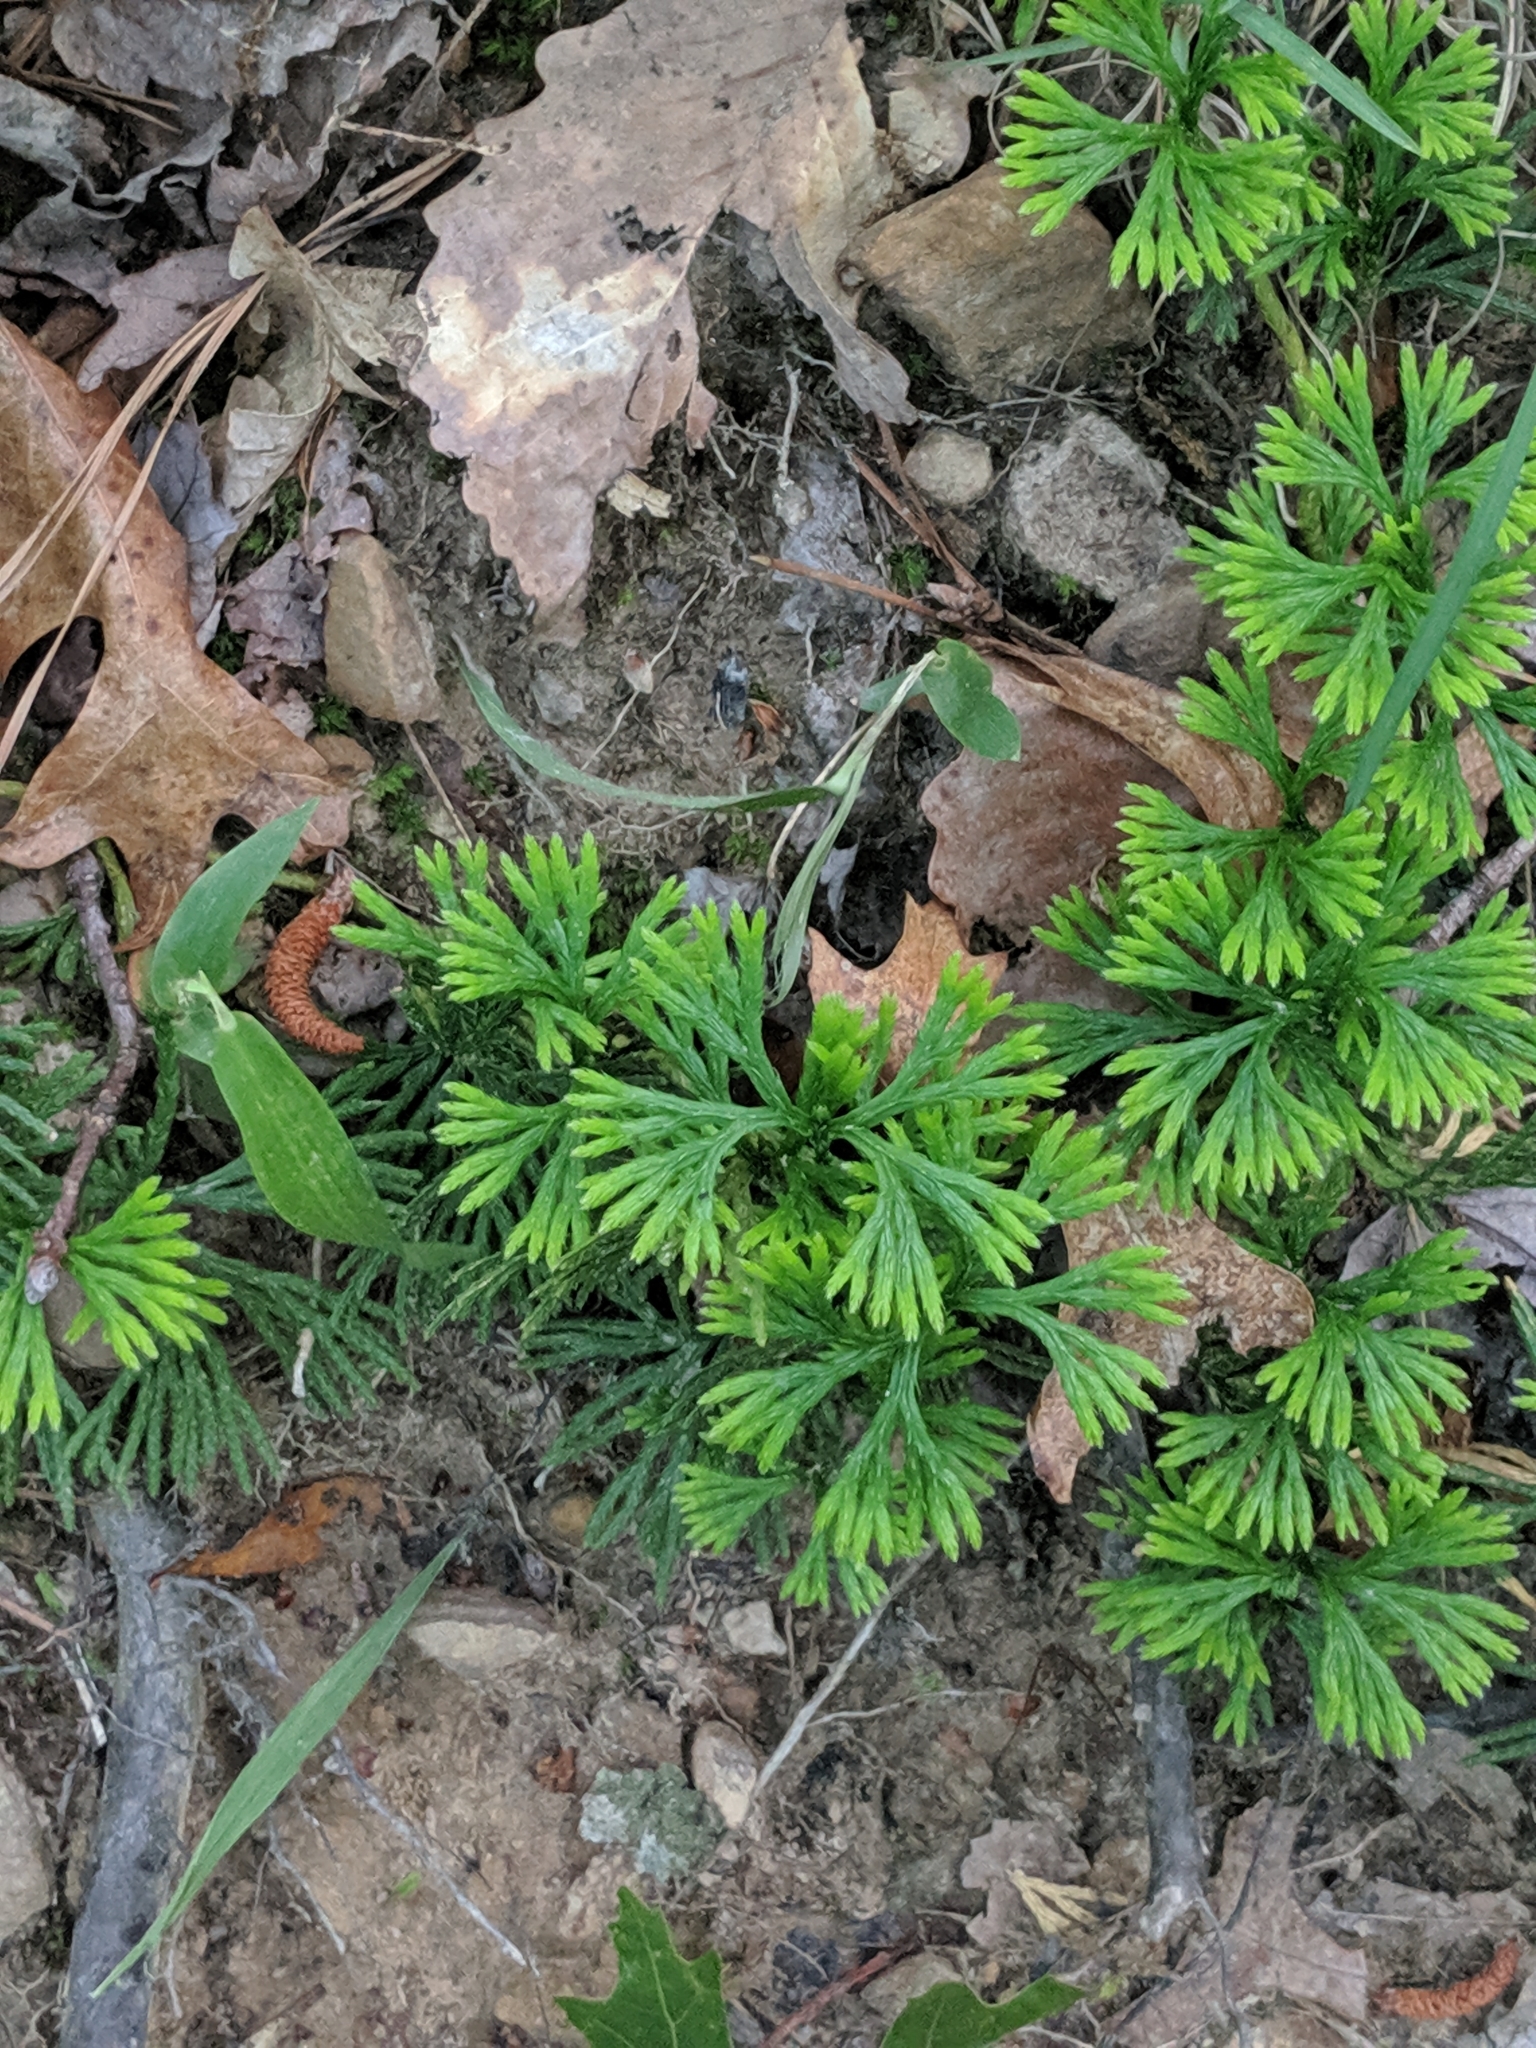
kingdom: Plantae
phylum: Tracheophyta
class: Lycopodiopsida
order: Lycopodiales
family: Lycopodiaceae
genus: Diphasiastrum
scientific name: Diphasiastrum digitatum
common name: Southern running-pine
